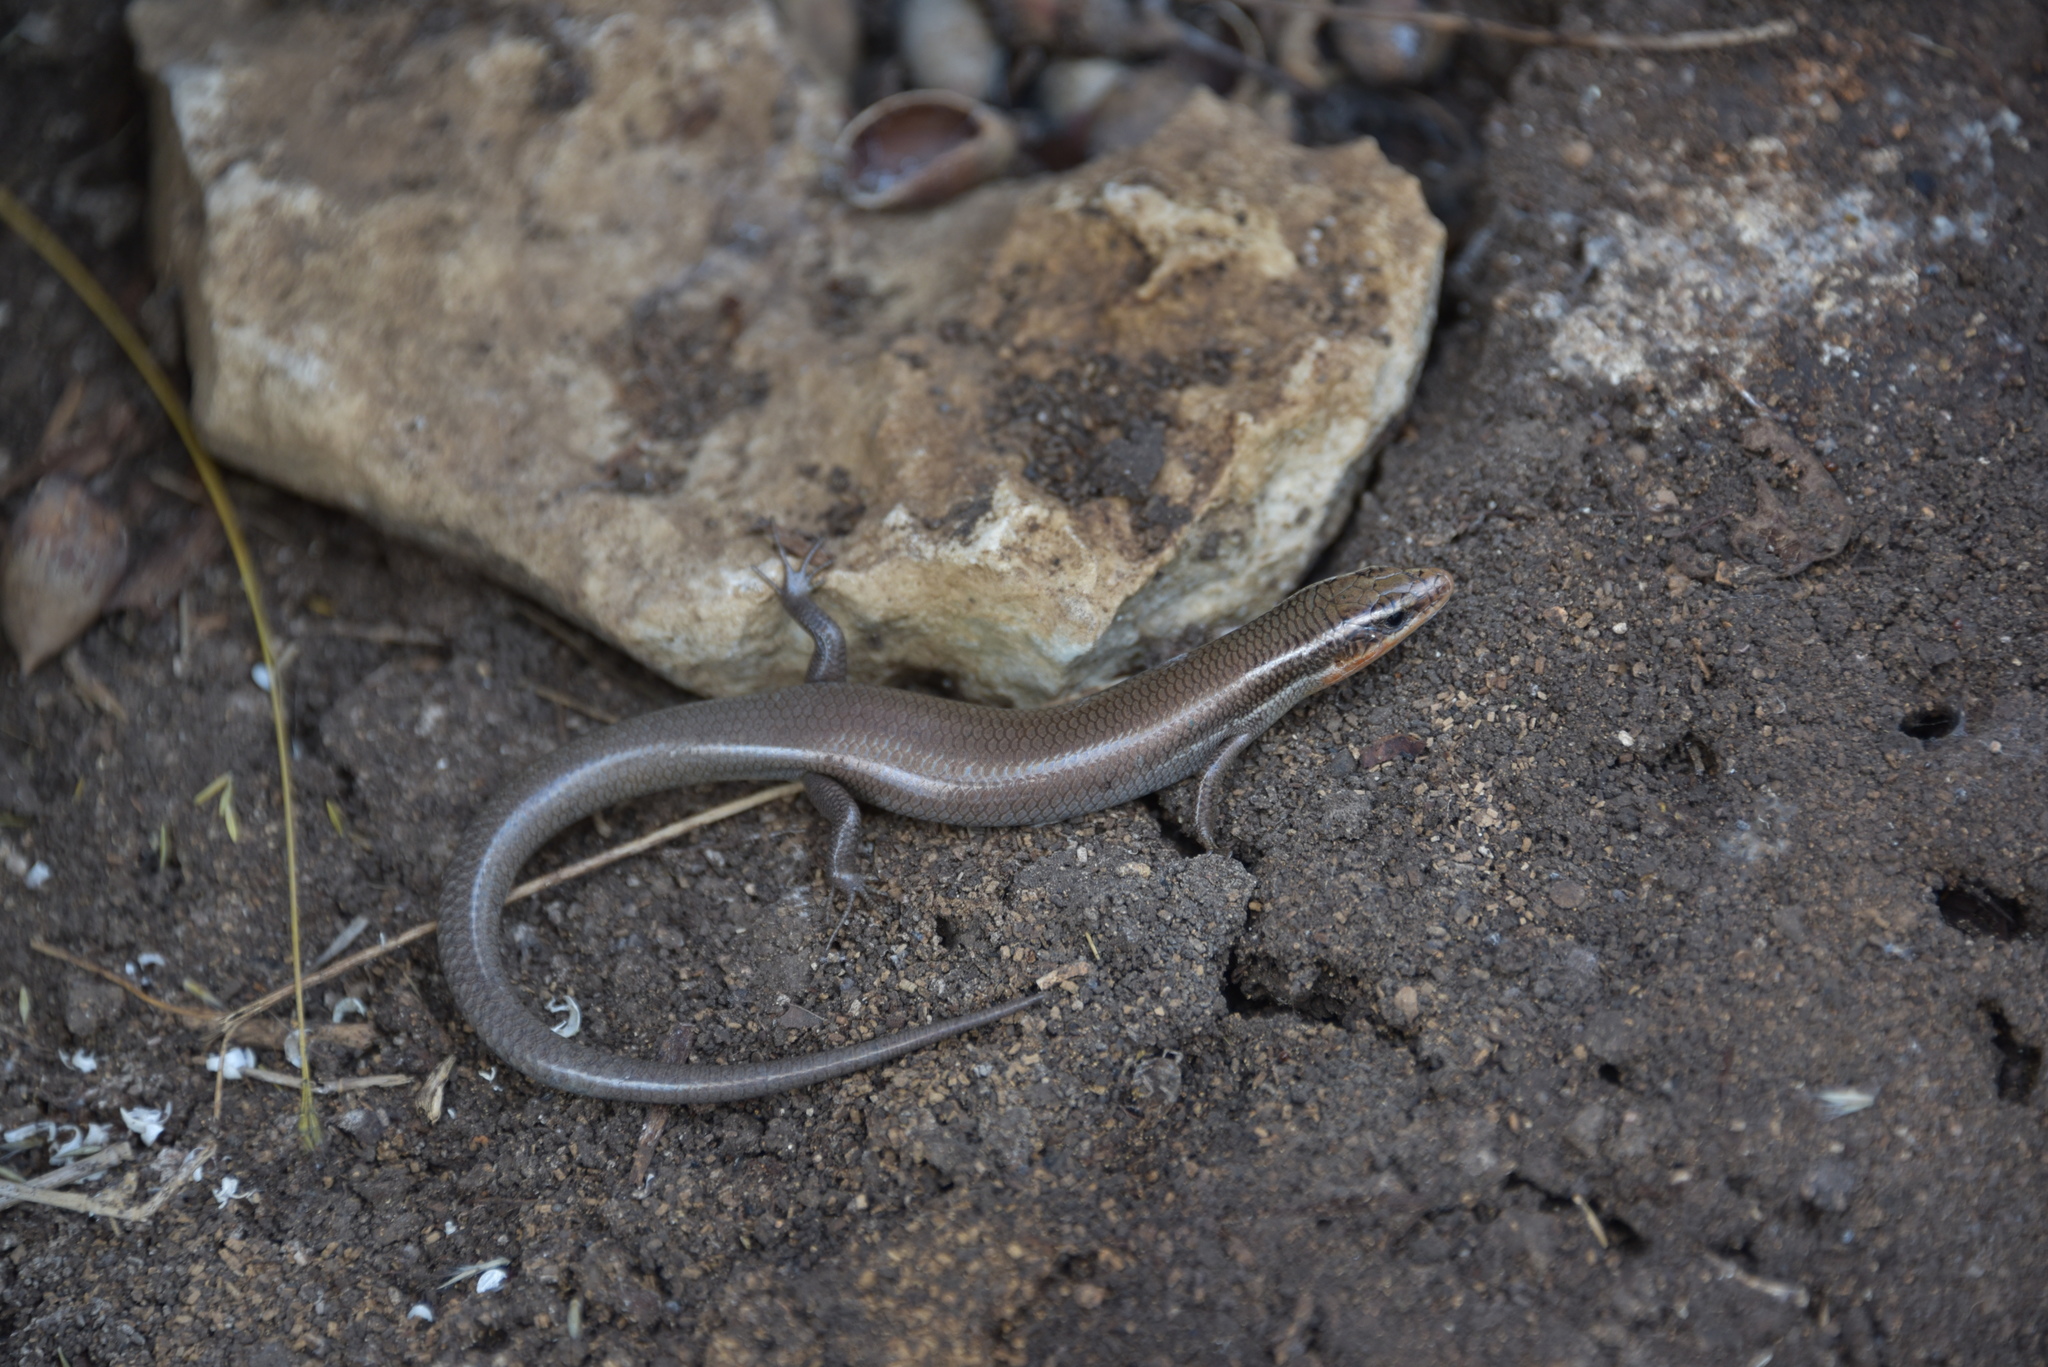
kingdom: Animalia
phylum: Chordata
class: Squamata
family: Scincidae
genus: Plestiodon
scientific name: Plestiodon tetragrammus
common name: Four-lined skink
